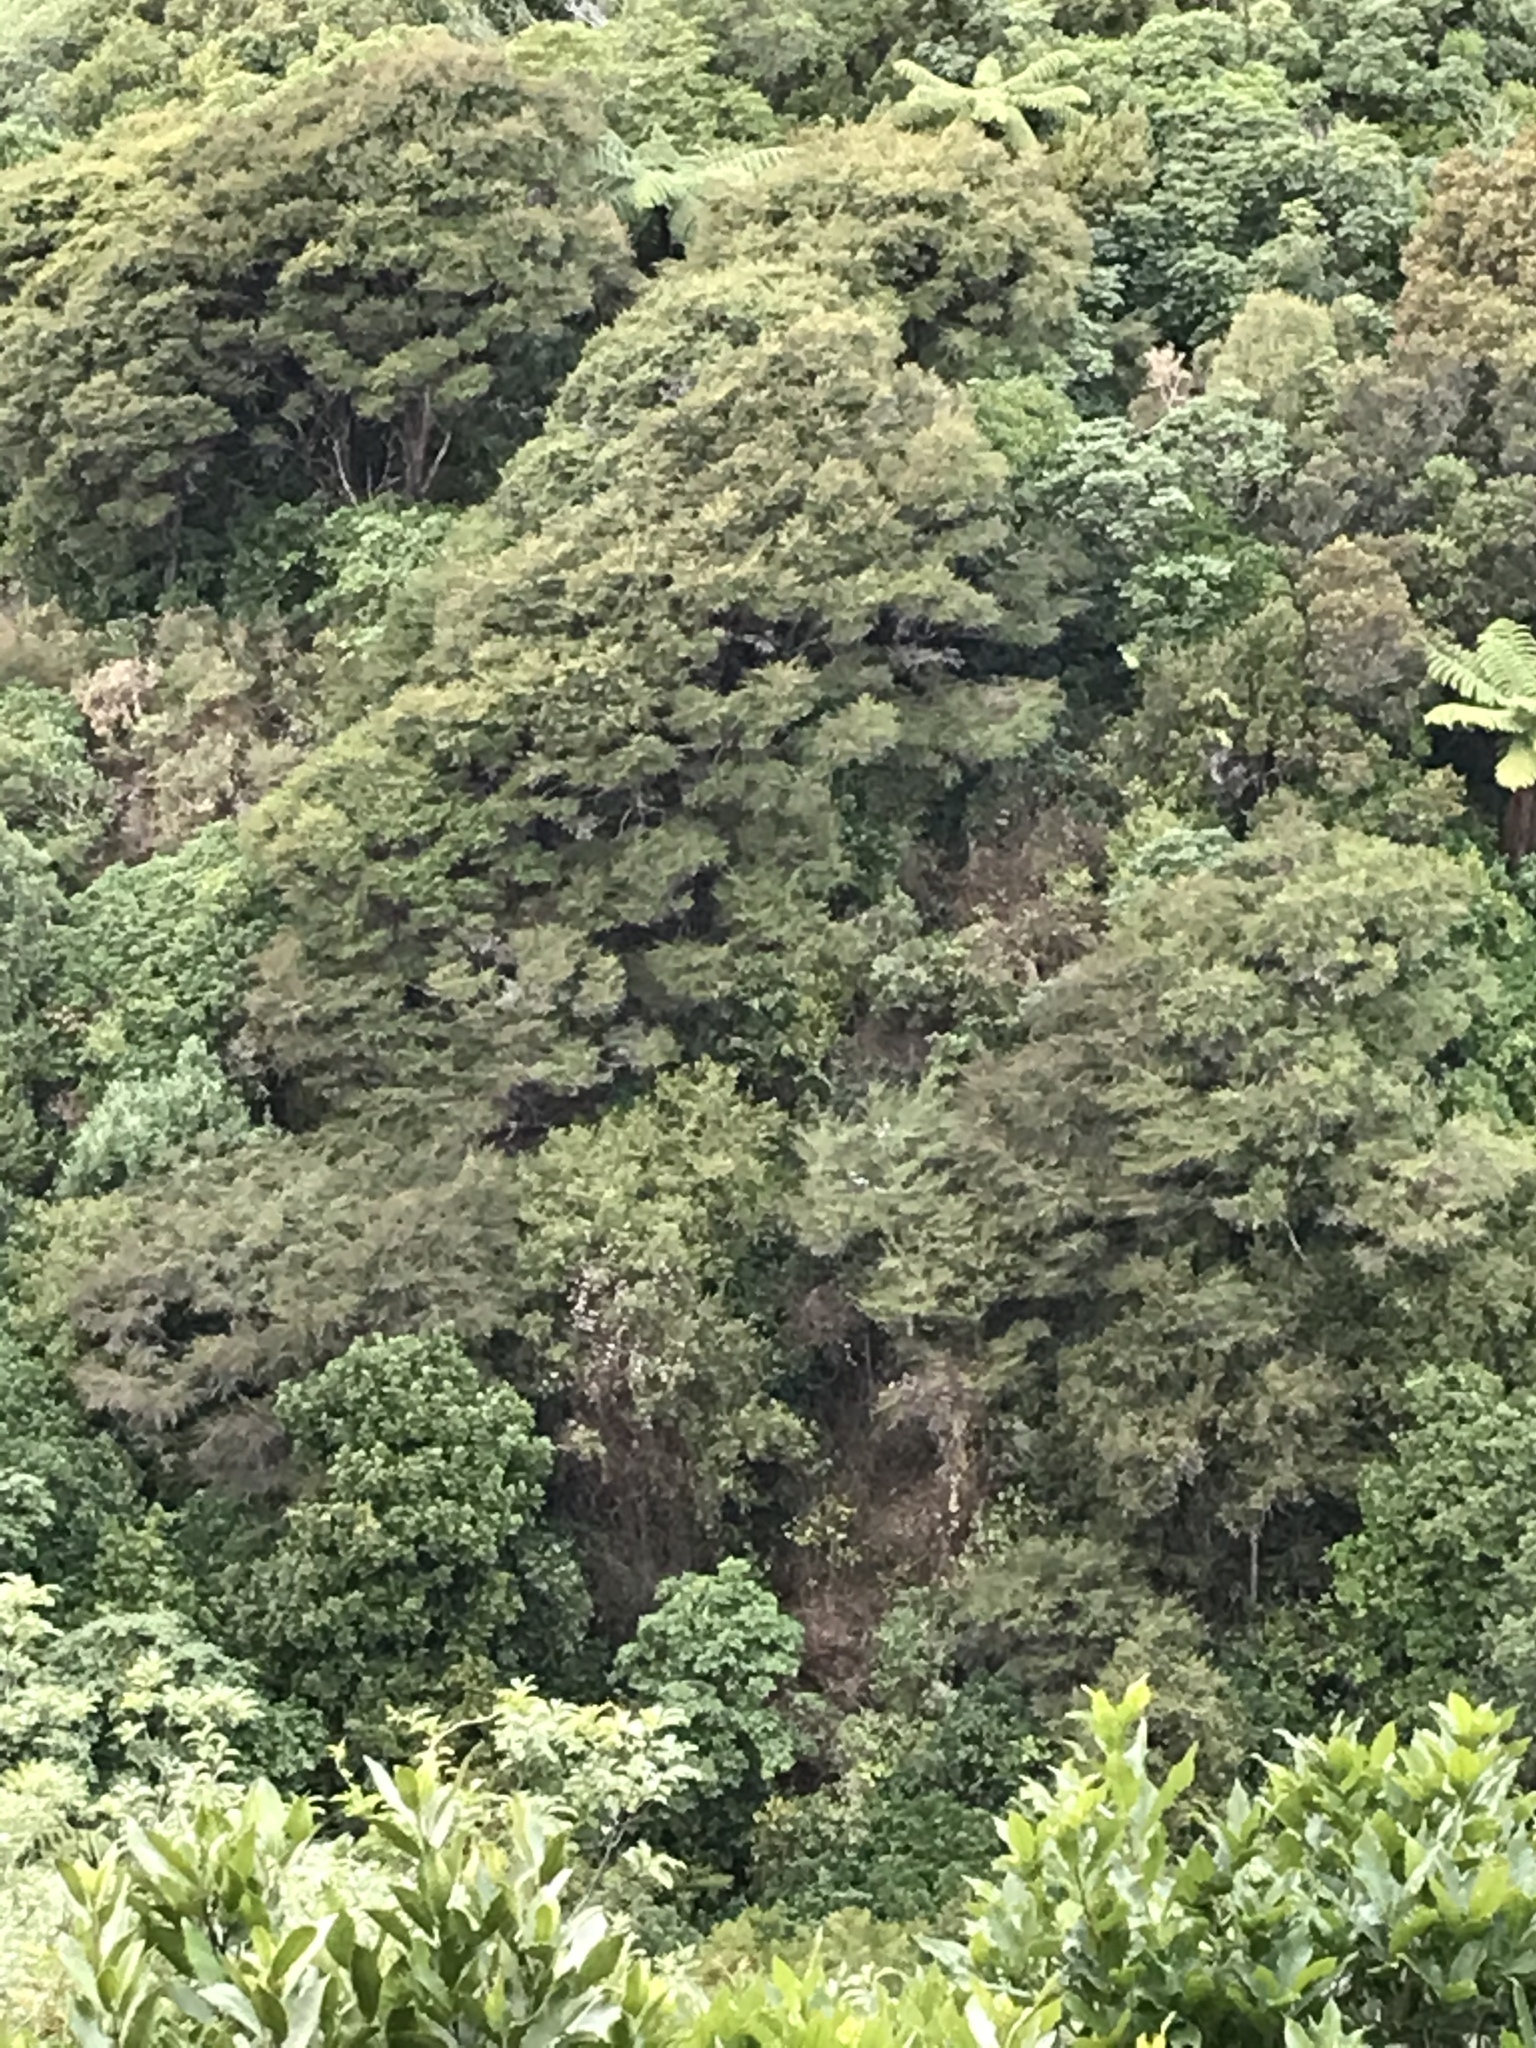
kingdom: Plantae
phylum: Tracheophyta
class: Magnoliopsida
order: Ranunculales
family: Ranunculaceae
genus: Clematis
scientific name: Clematis vitalba
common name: Evergreen clematis
